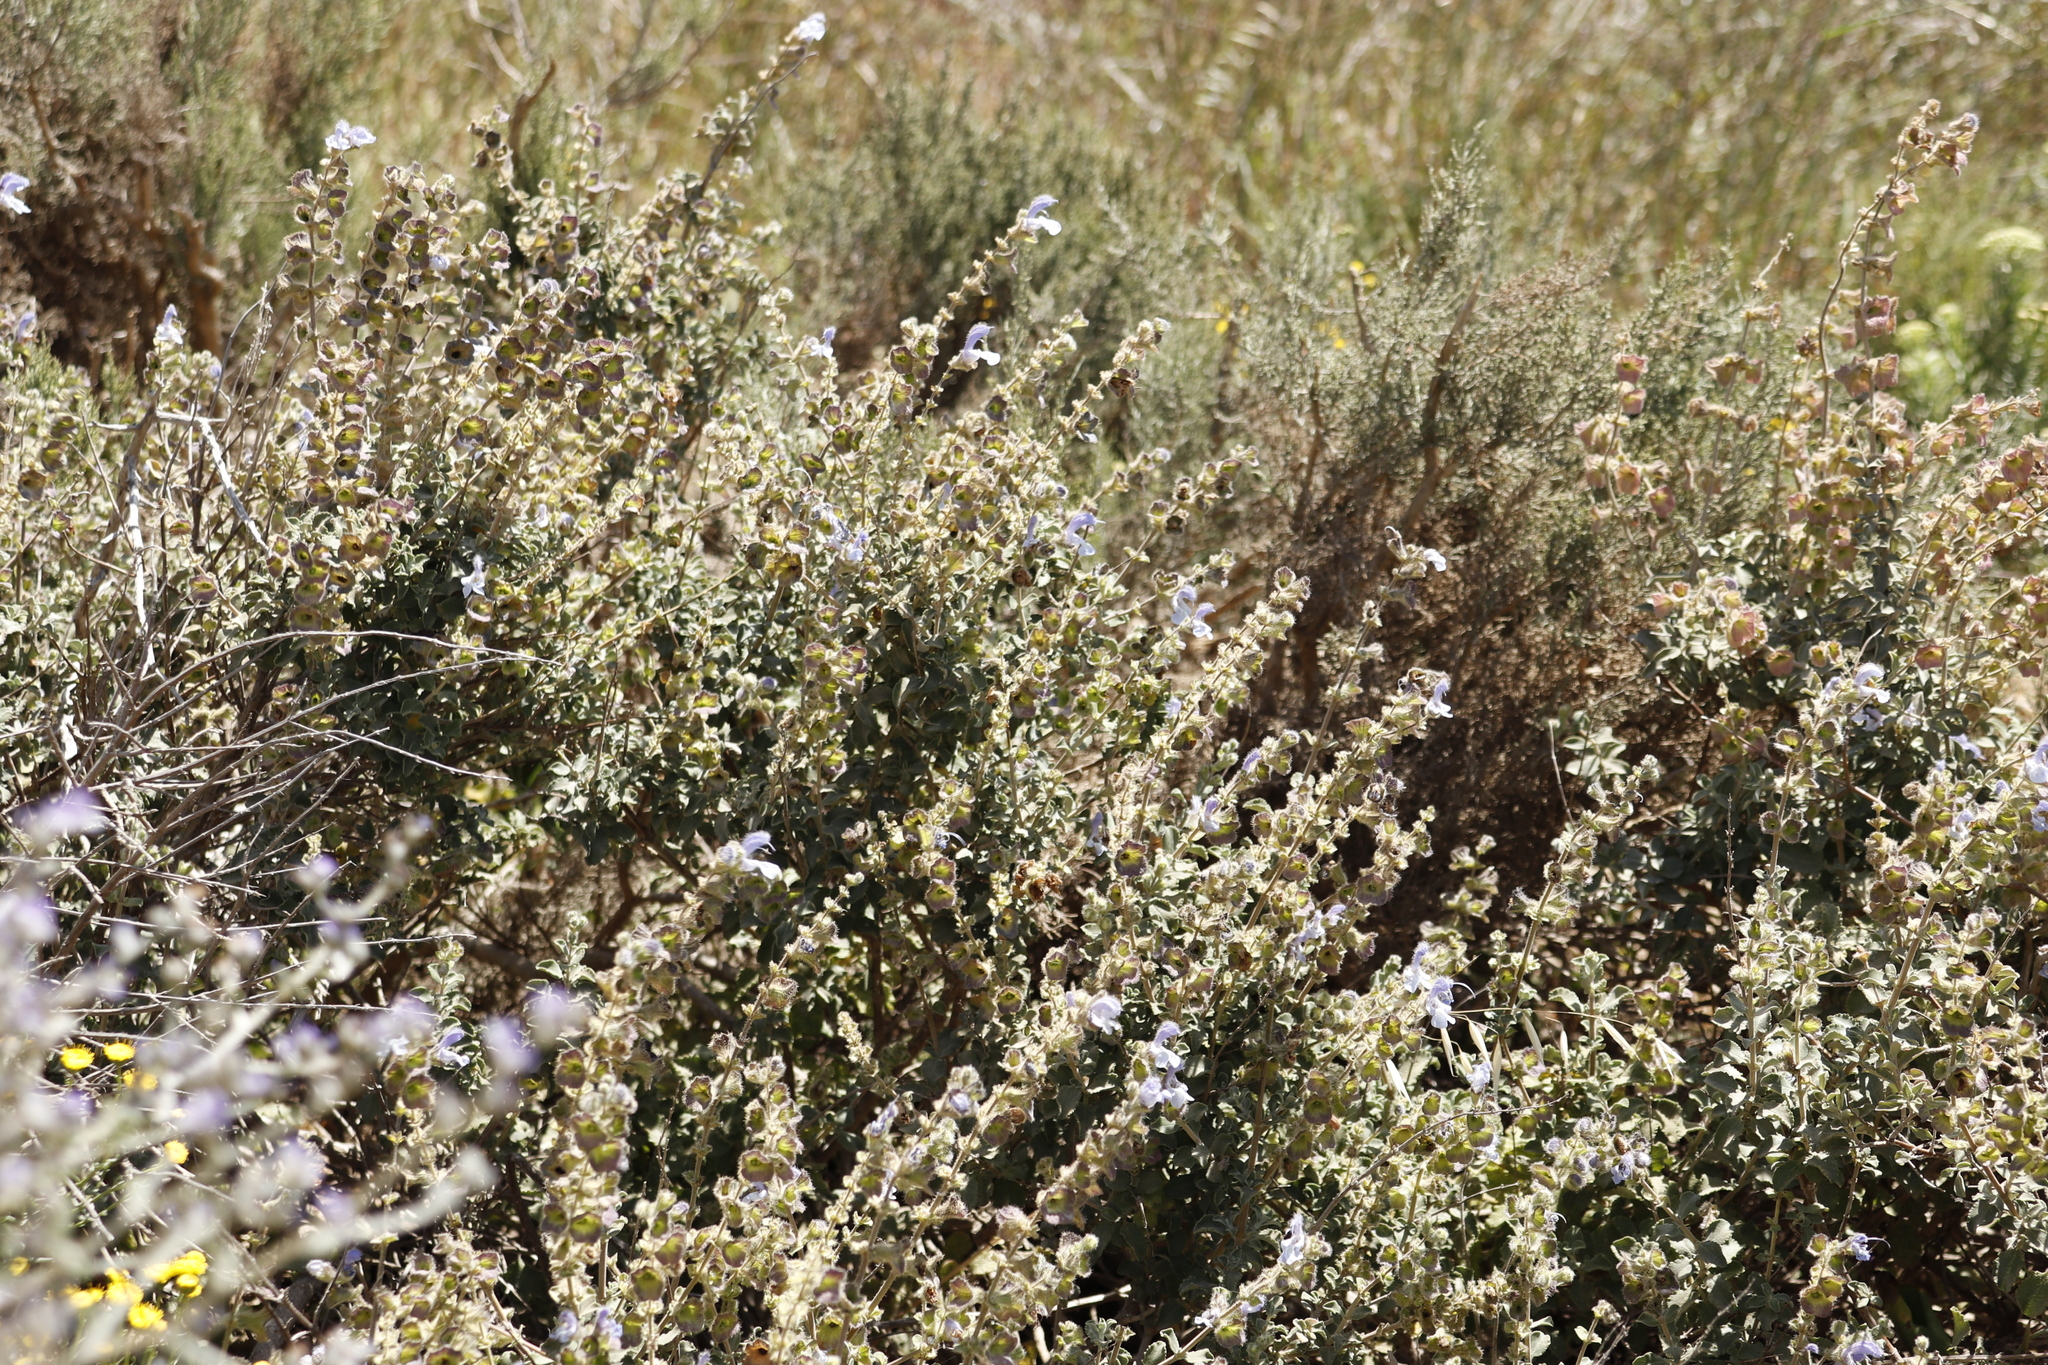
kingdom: Plantae
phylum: Tracheophyta
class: Magnoliopsida
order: Lamiales
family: Lamiaceae
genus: Salvia
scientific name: Salvia africana
